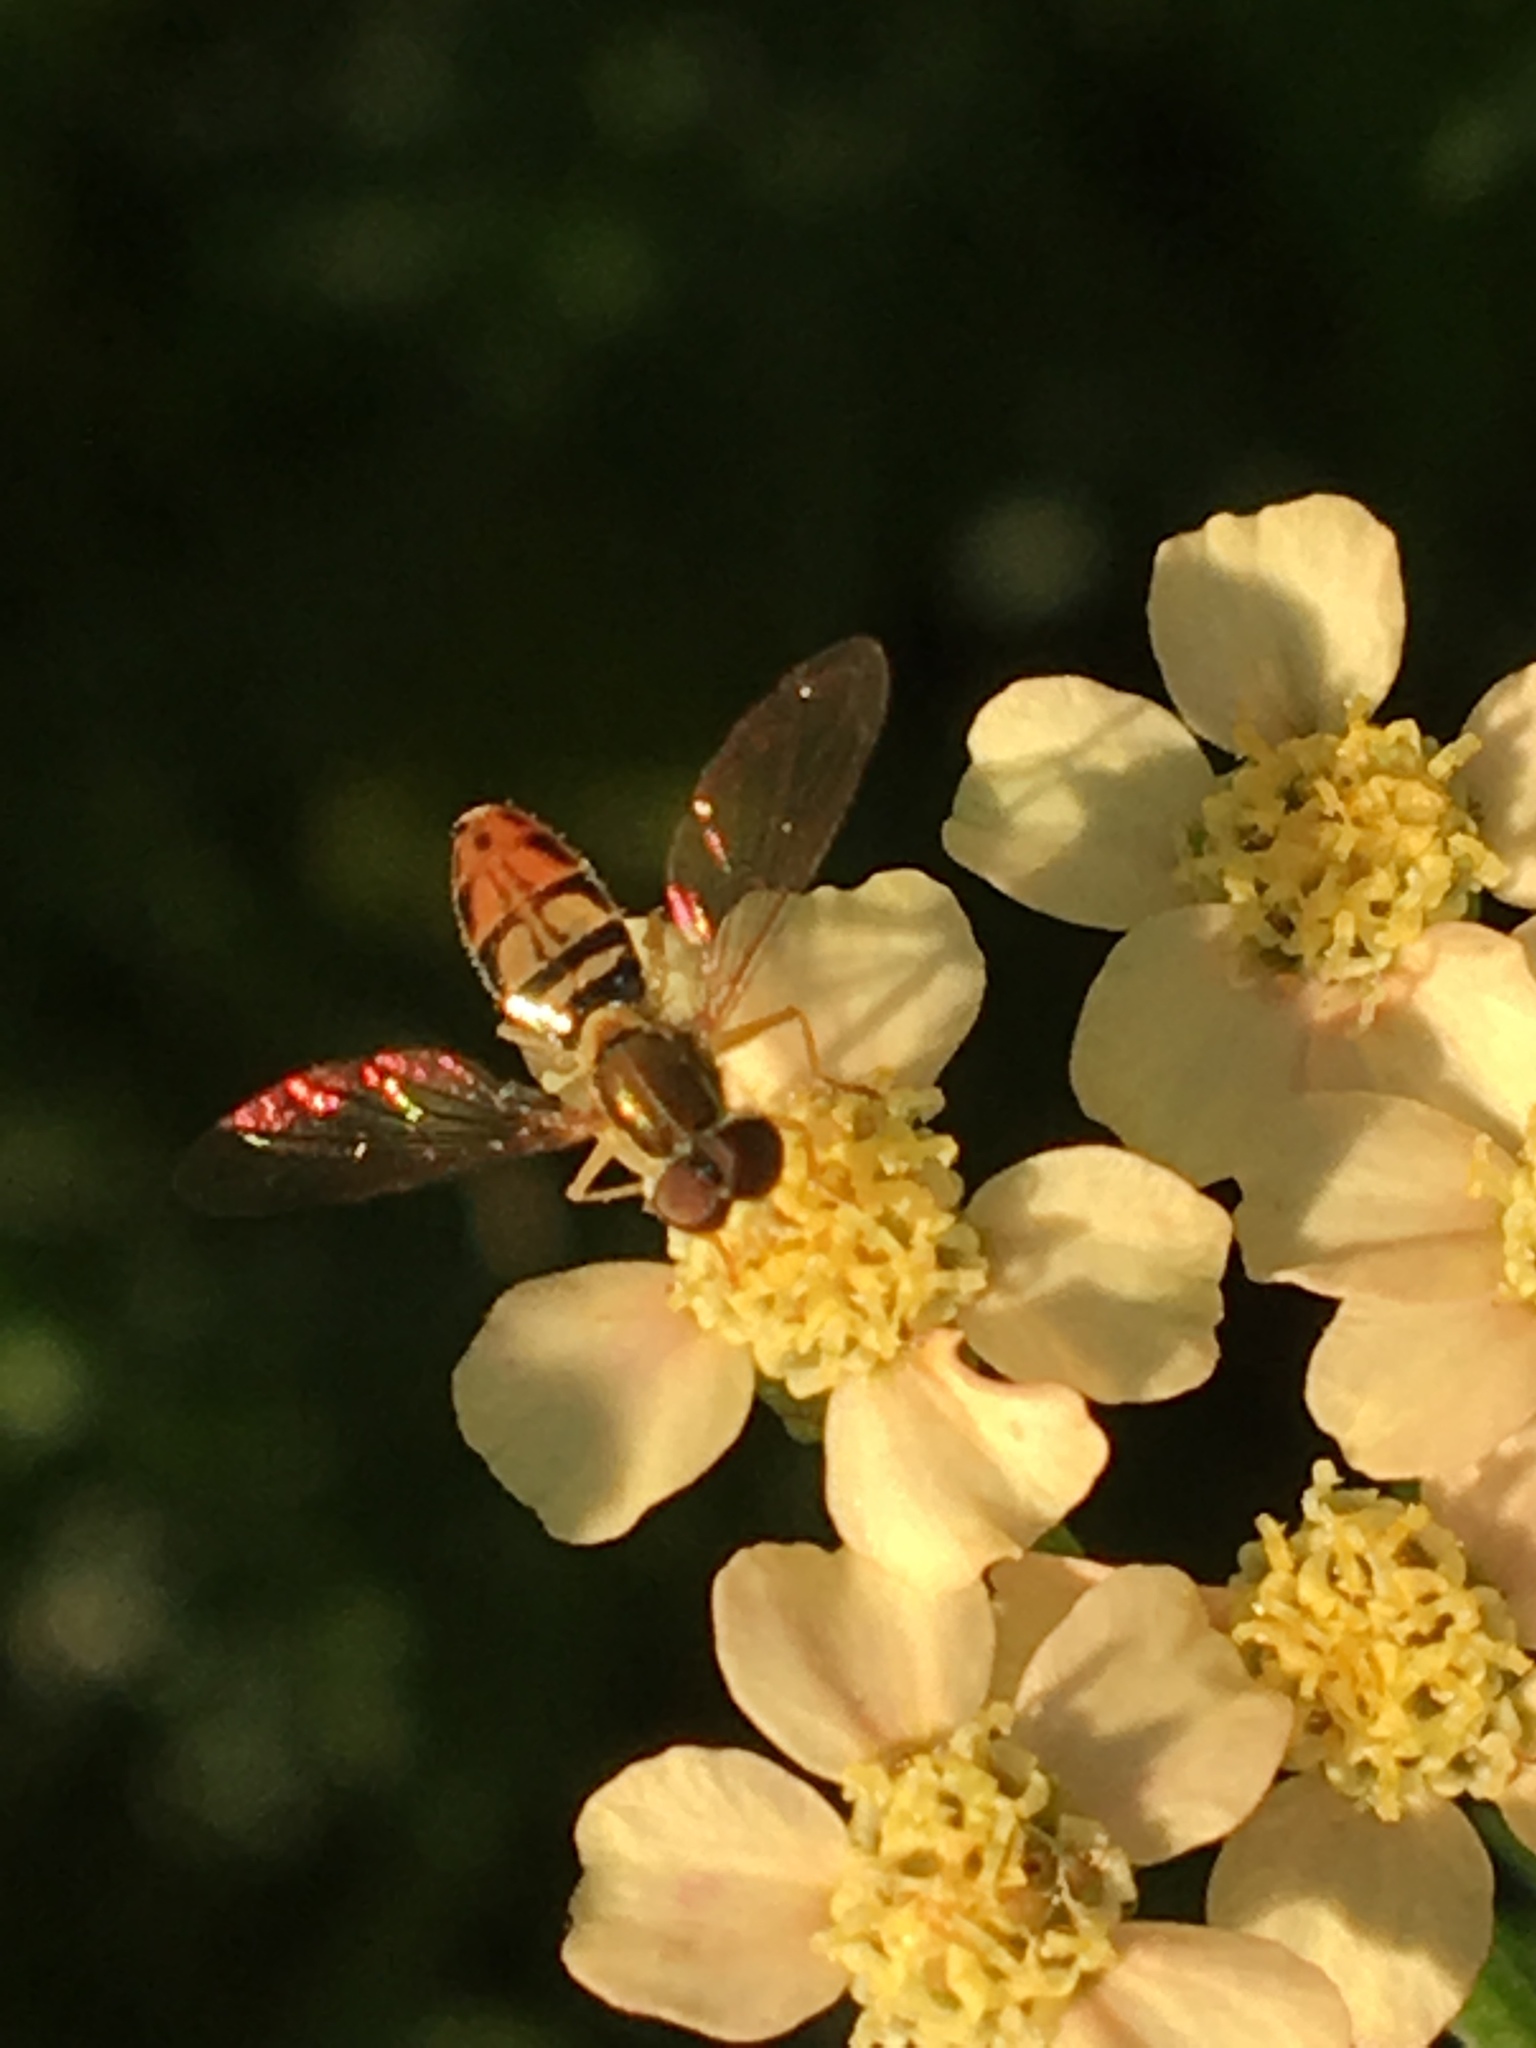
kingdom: Animalia
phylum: Arthropoda
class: Insecta
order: Diptera
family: Syrphidae
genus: Toxomerus
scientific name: Toxomerus marginatus
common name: Syrphid fly
